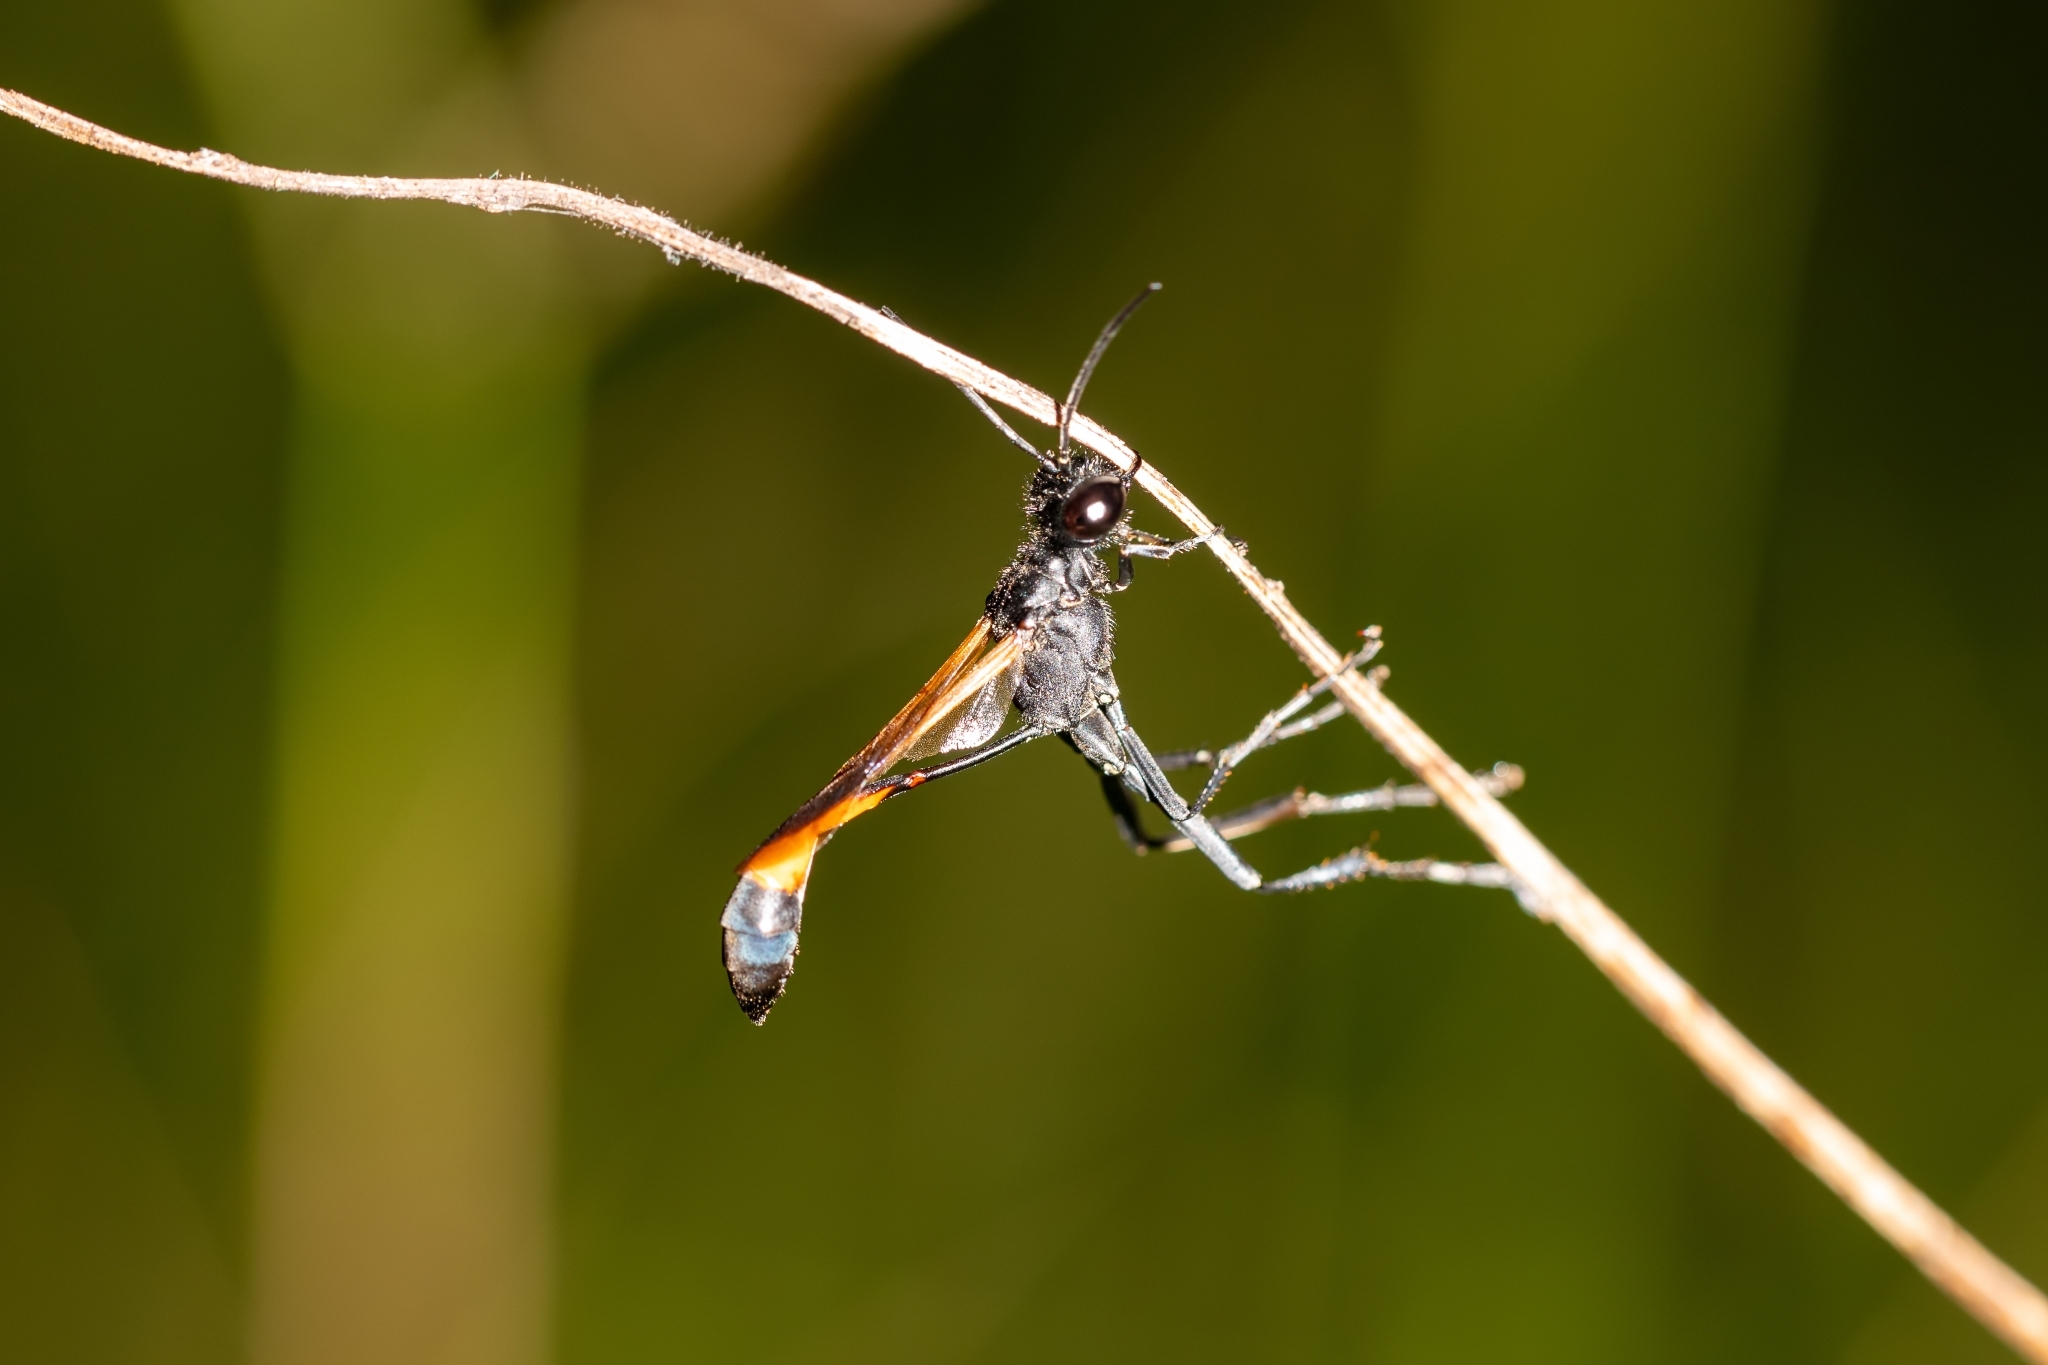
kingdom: Animalia
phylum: Arthropoda
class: Insecta
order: Hymenoptera
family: Sphecidae
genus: Ammophila
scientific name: Ammophila pictipennis
